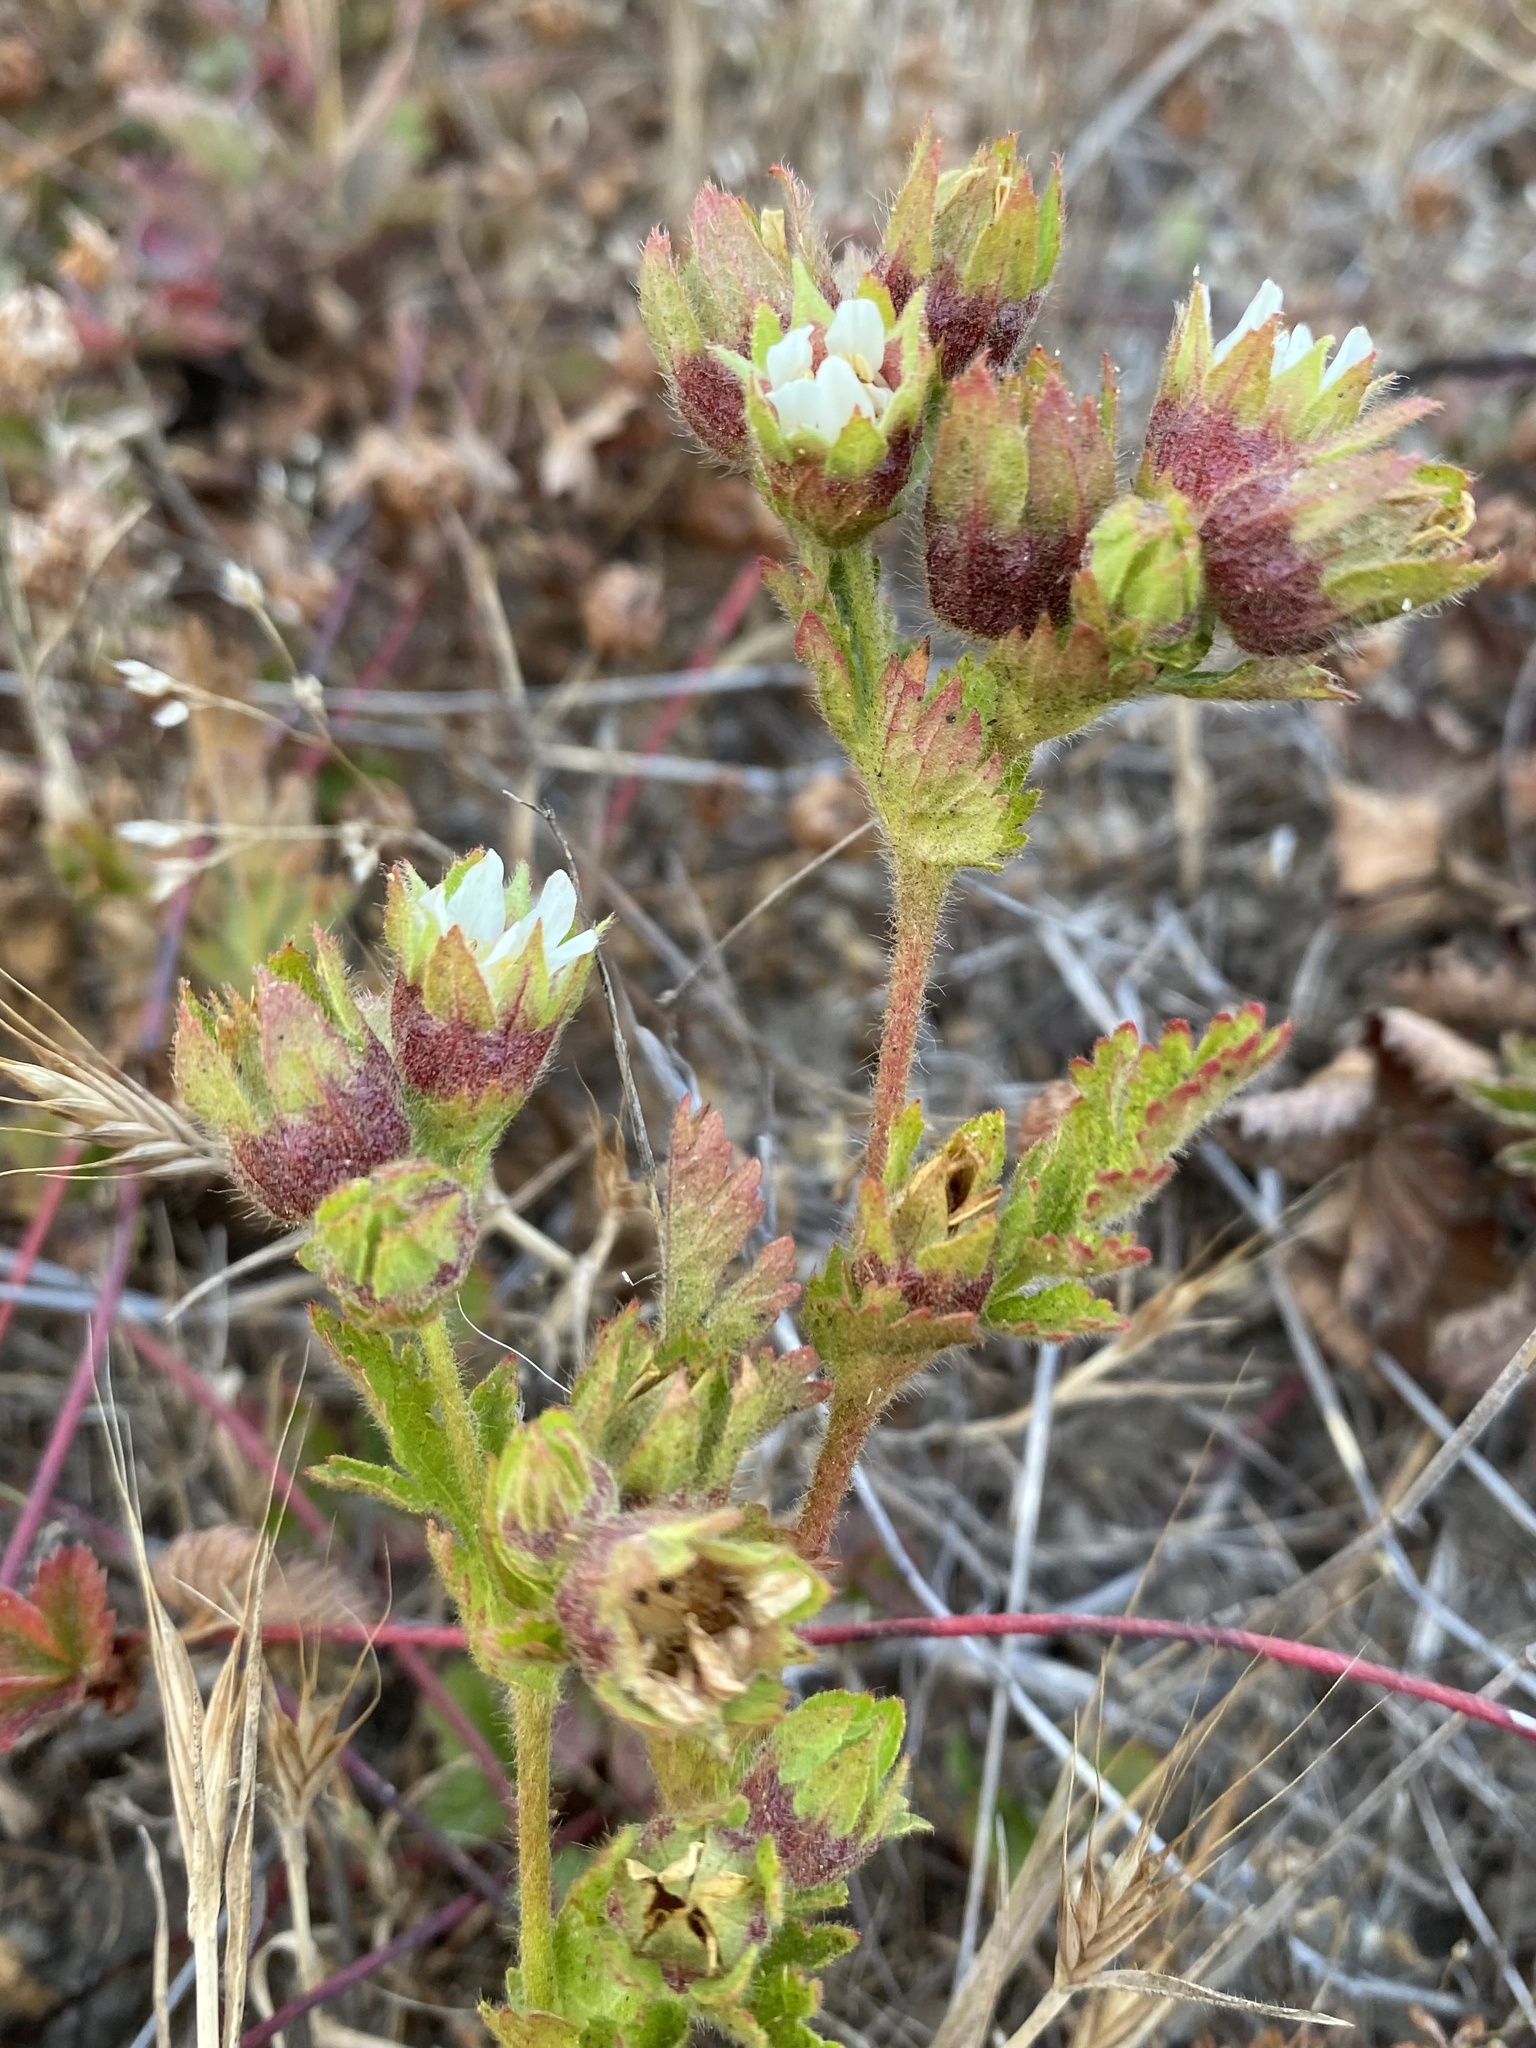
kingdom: Plantae
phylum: Tracheophyta
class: Magnoliopsida
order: Rosales
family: Rosaceae
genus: Potentilla
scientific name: Potentilla californica
